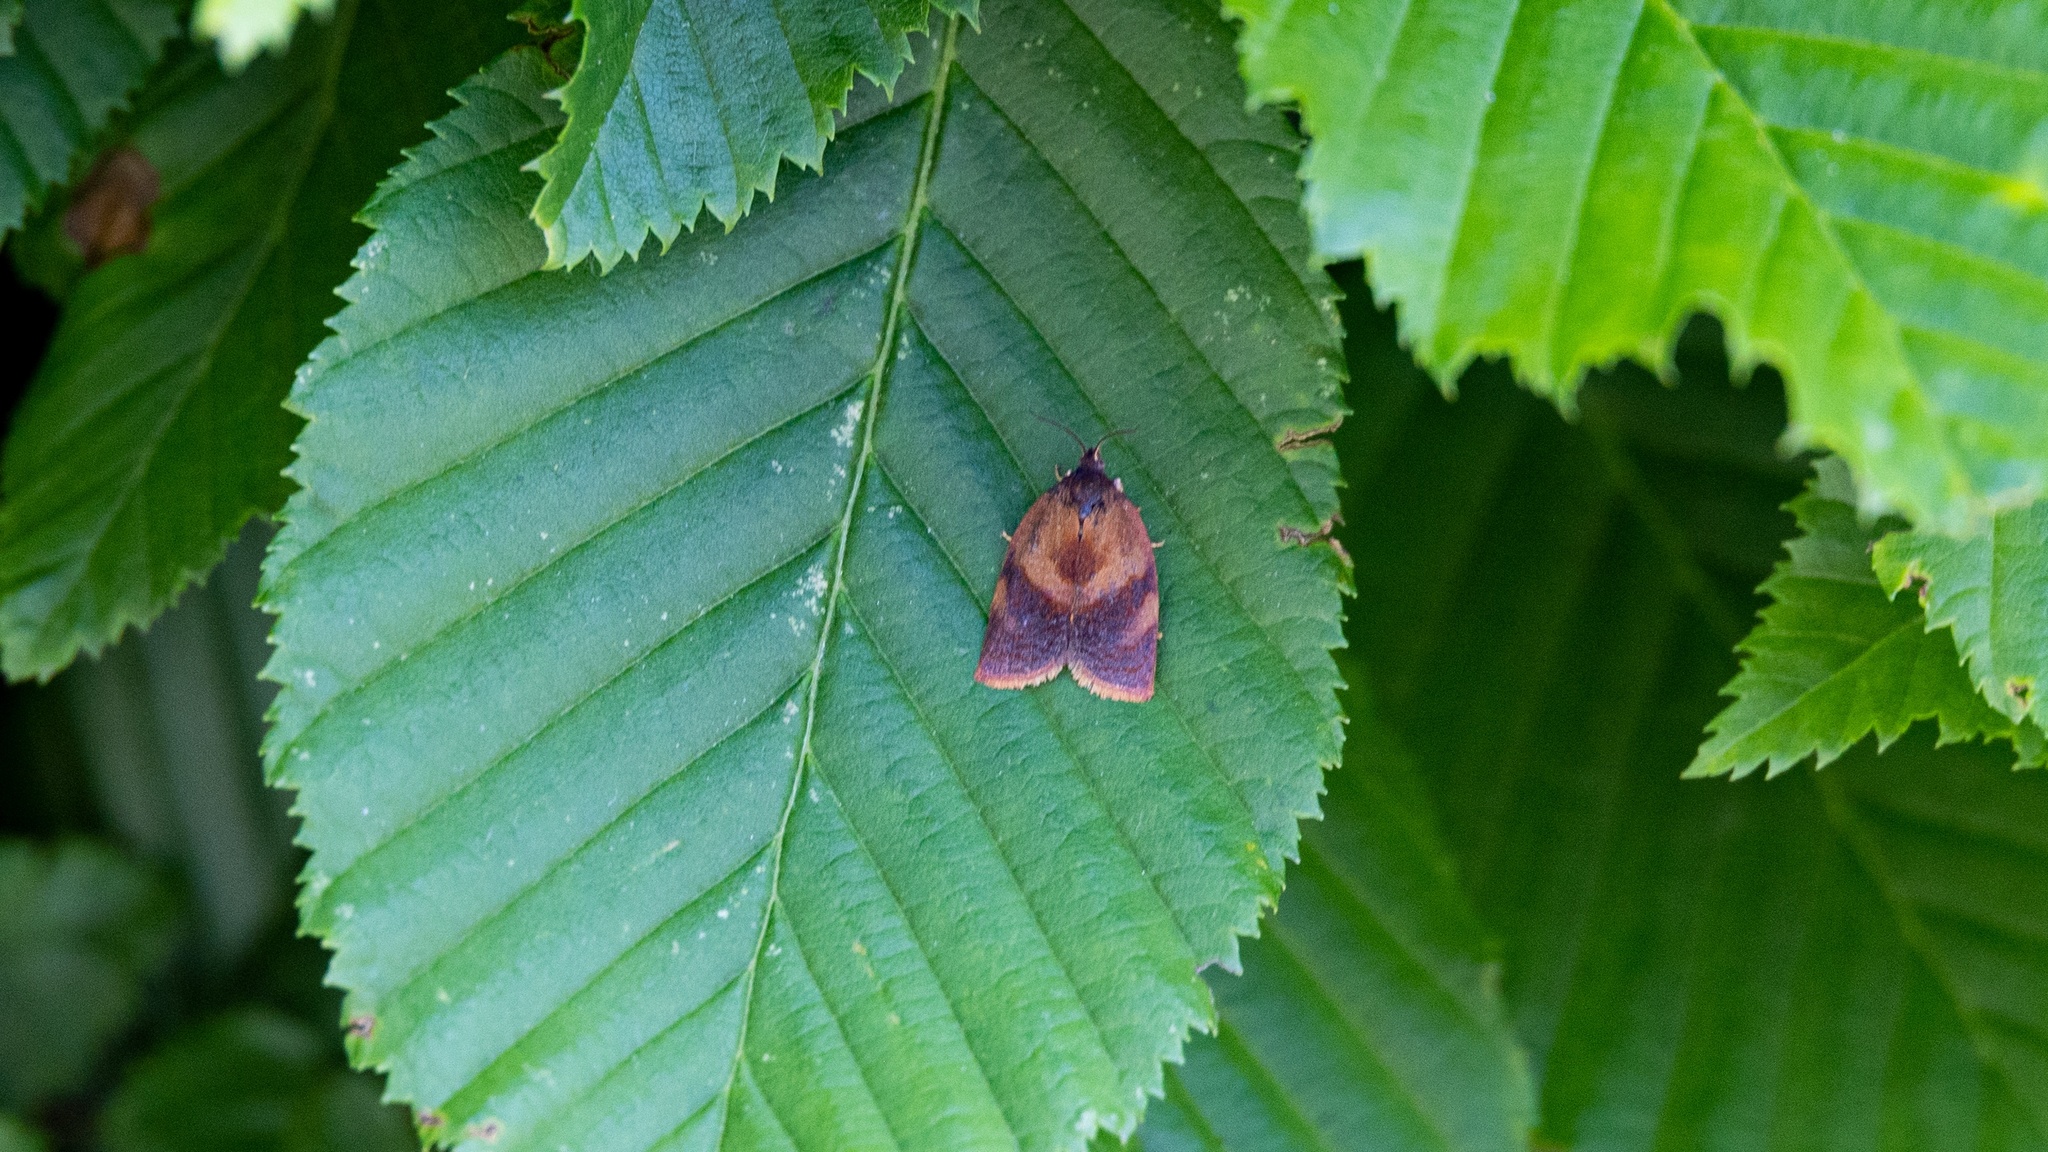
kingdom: Animalia
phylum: Arthropoda
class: Insecta
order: Lepidoptera
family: Tortricidae
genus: Cacoecimorpha
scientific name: Cacoecimorpha pronubana
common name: Carnation tortrix
